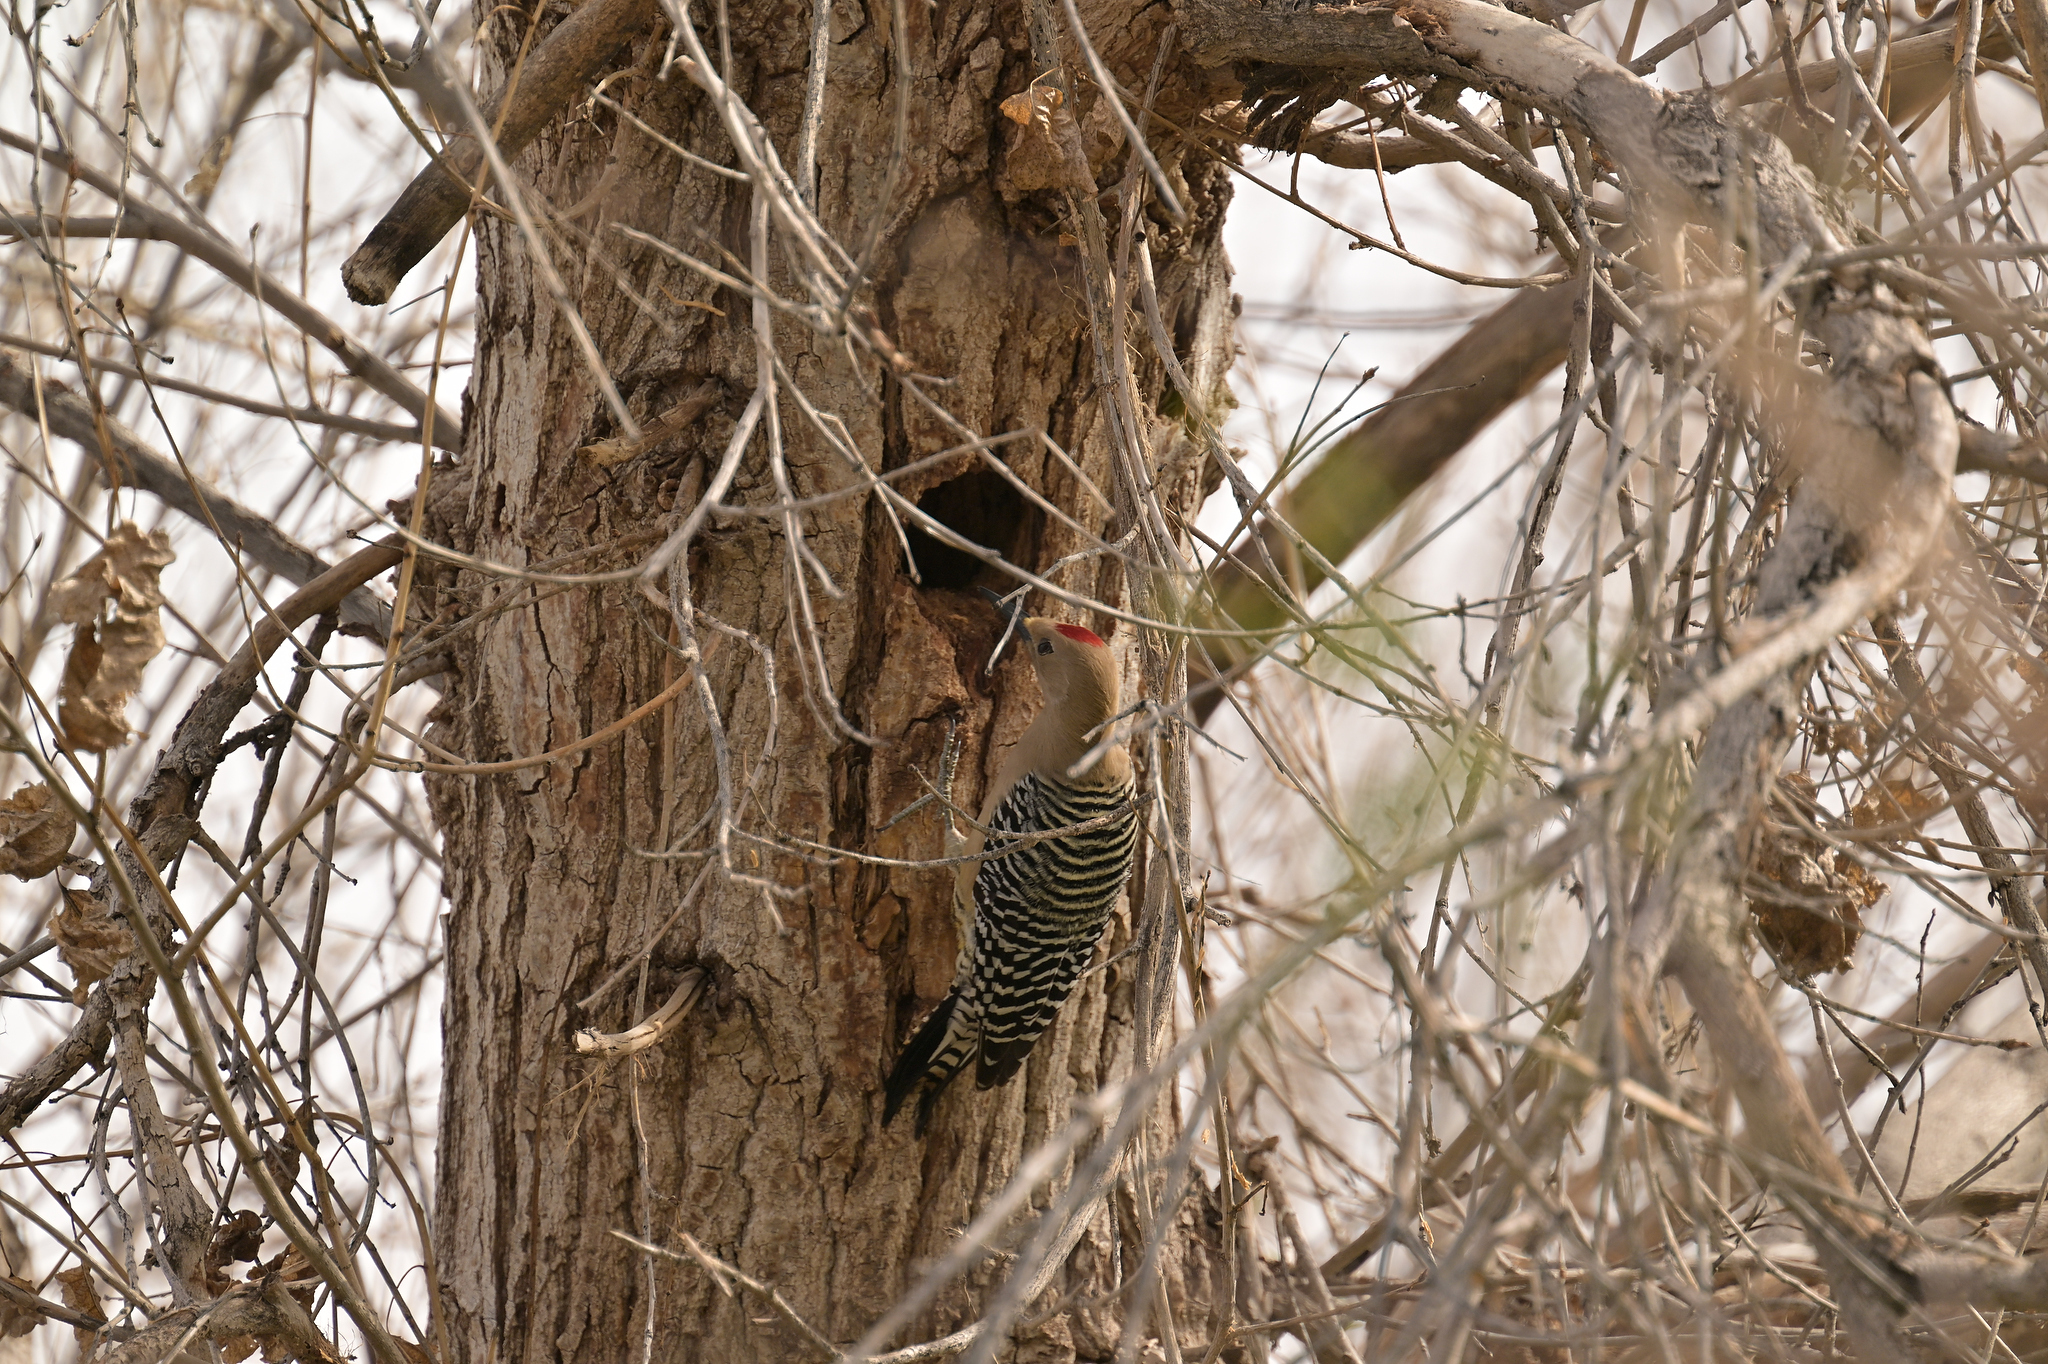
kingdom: Animalia
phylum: Chordata
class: Aves
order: Piciformes
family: Picidae
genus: Melanerpes
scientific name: Melanerpes uropygialis
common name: Gila woodpecker
